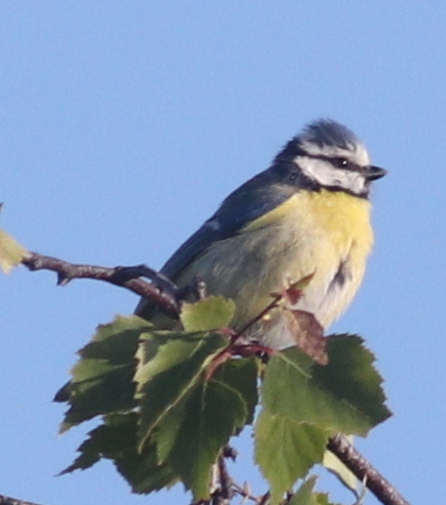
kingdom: Animalia
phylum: Chordata
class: Aves
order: Passeriformes
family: Paridae
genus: Cyanistes
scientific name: Cyanistes caeruleus
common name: Eurasian blue tit
